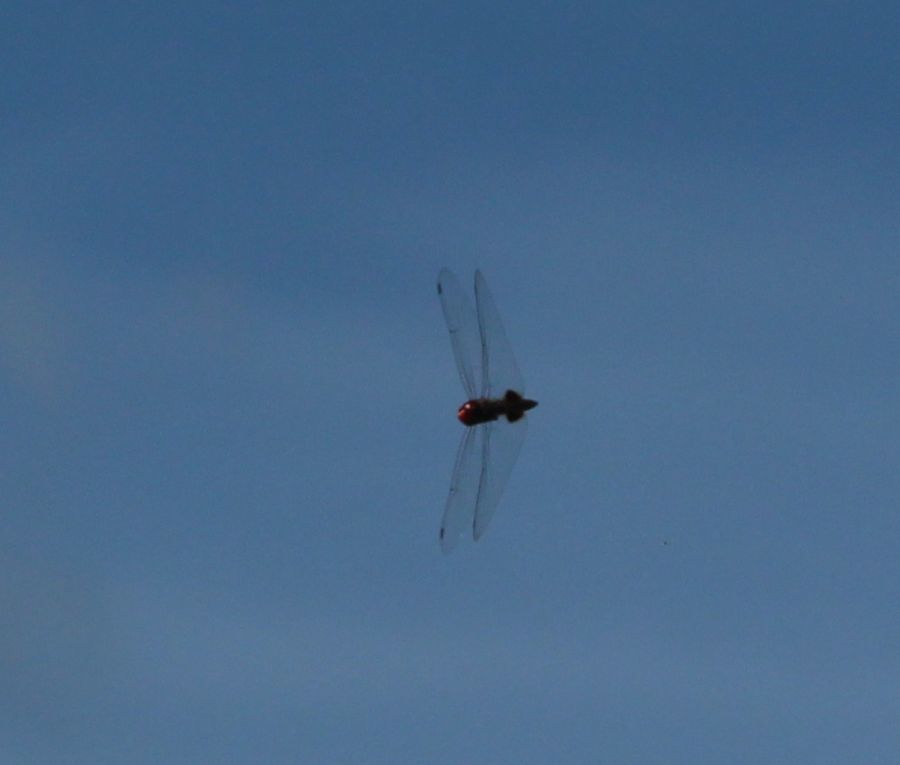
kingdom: Animalia
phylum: Arthropoda
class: Insecta
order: Odonata
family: Libellulidae
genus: Pantala
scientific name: Pantala hymenaea
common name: Spot-winged glider
